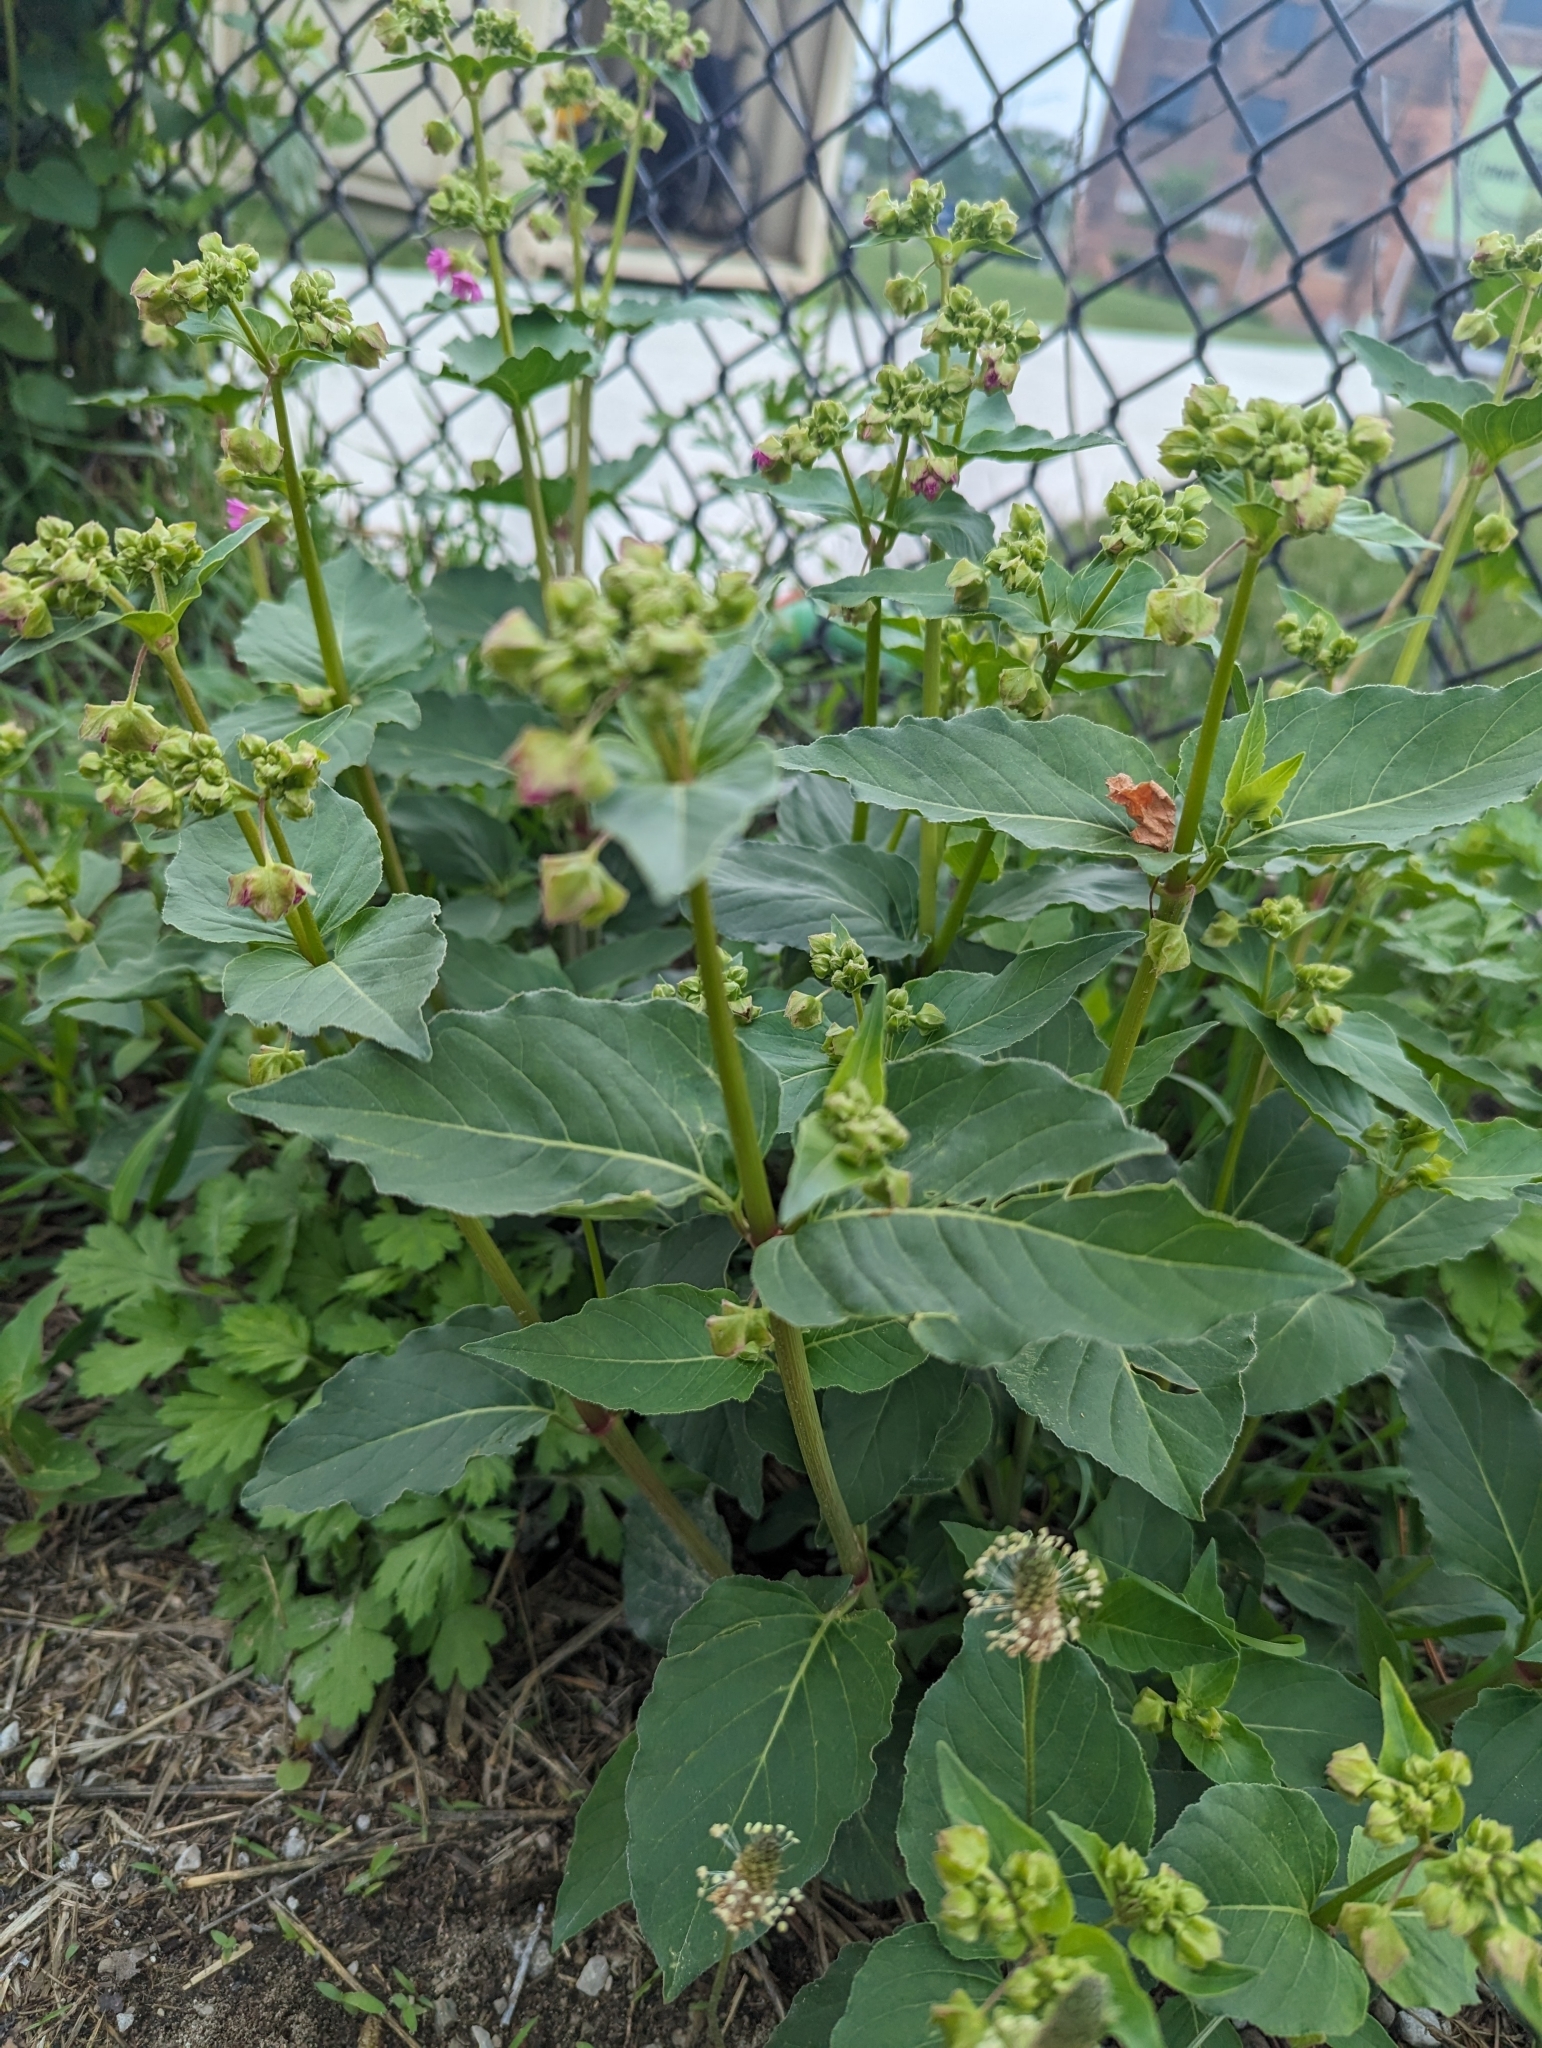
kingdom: Plantae
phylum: Tracheophyta
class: Magnoliopsida
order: Caryophyllales
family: Nyctaginaceae
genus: Mirabilis
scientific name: Mirabilis nyctaginea
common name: Umbrella wort
